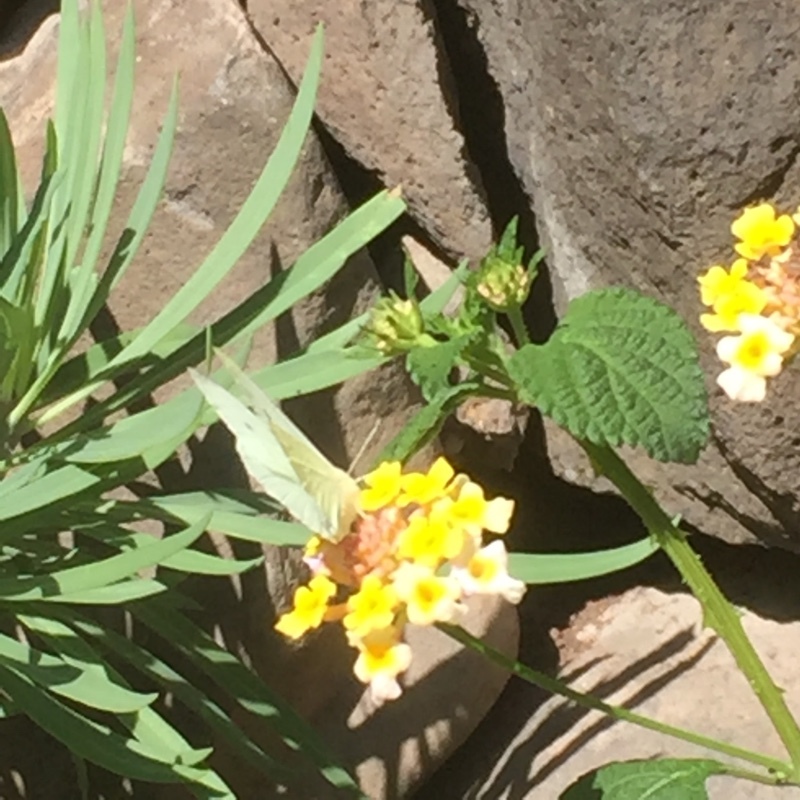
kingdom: Animalia
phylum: Arthropoda
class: Insecta
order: Lepidoptera
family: Pieridae
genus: Pieris
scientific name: Pieris rapae
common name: Small white
